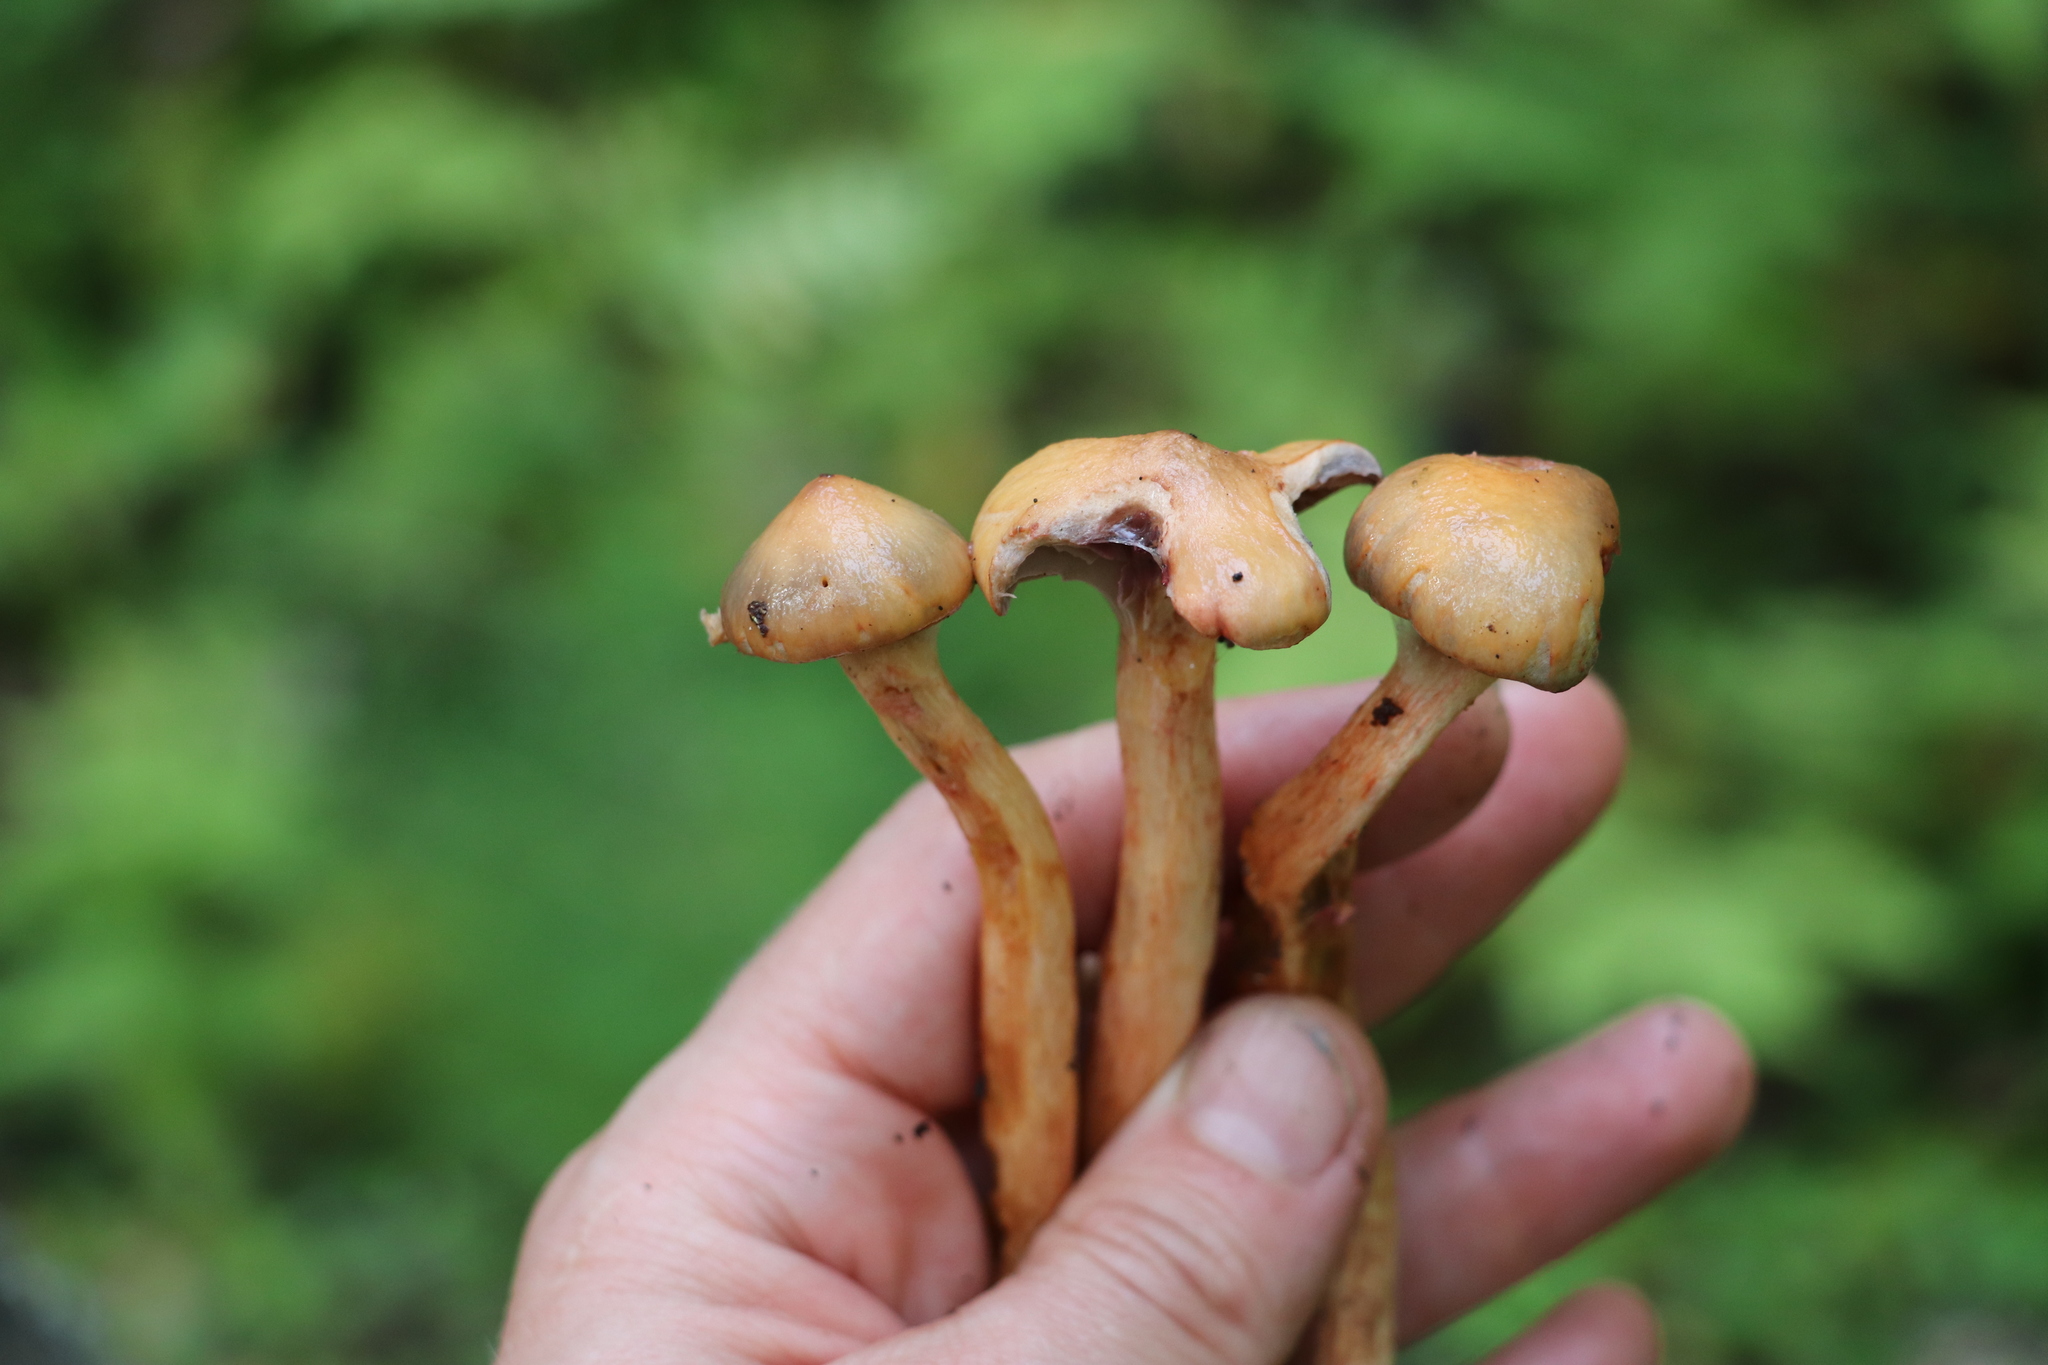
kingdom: Fungi
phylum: Basidiomycota
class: Agaricomycetes
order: Boletales
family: Gomphidiaceae
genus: Chroogomphus
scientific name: Chroogomphus rutilus
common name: Copper spike
